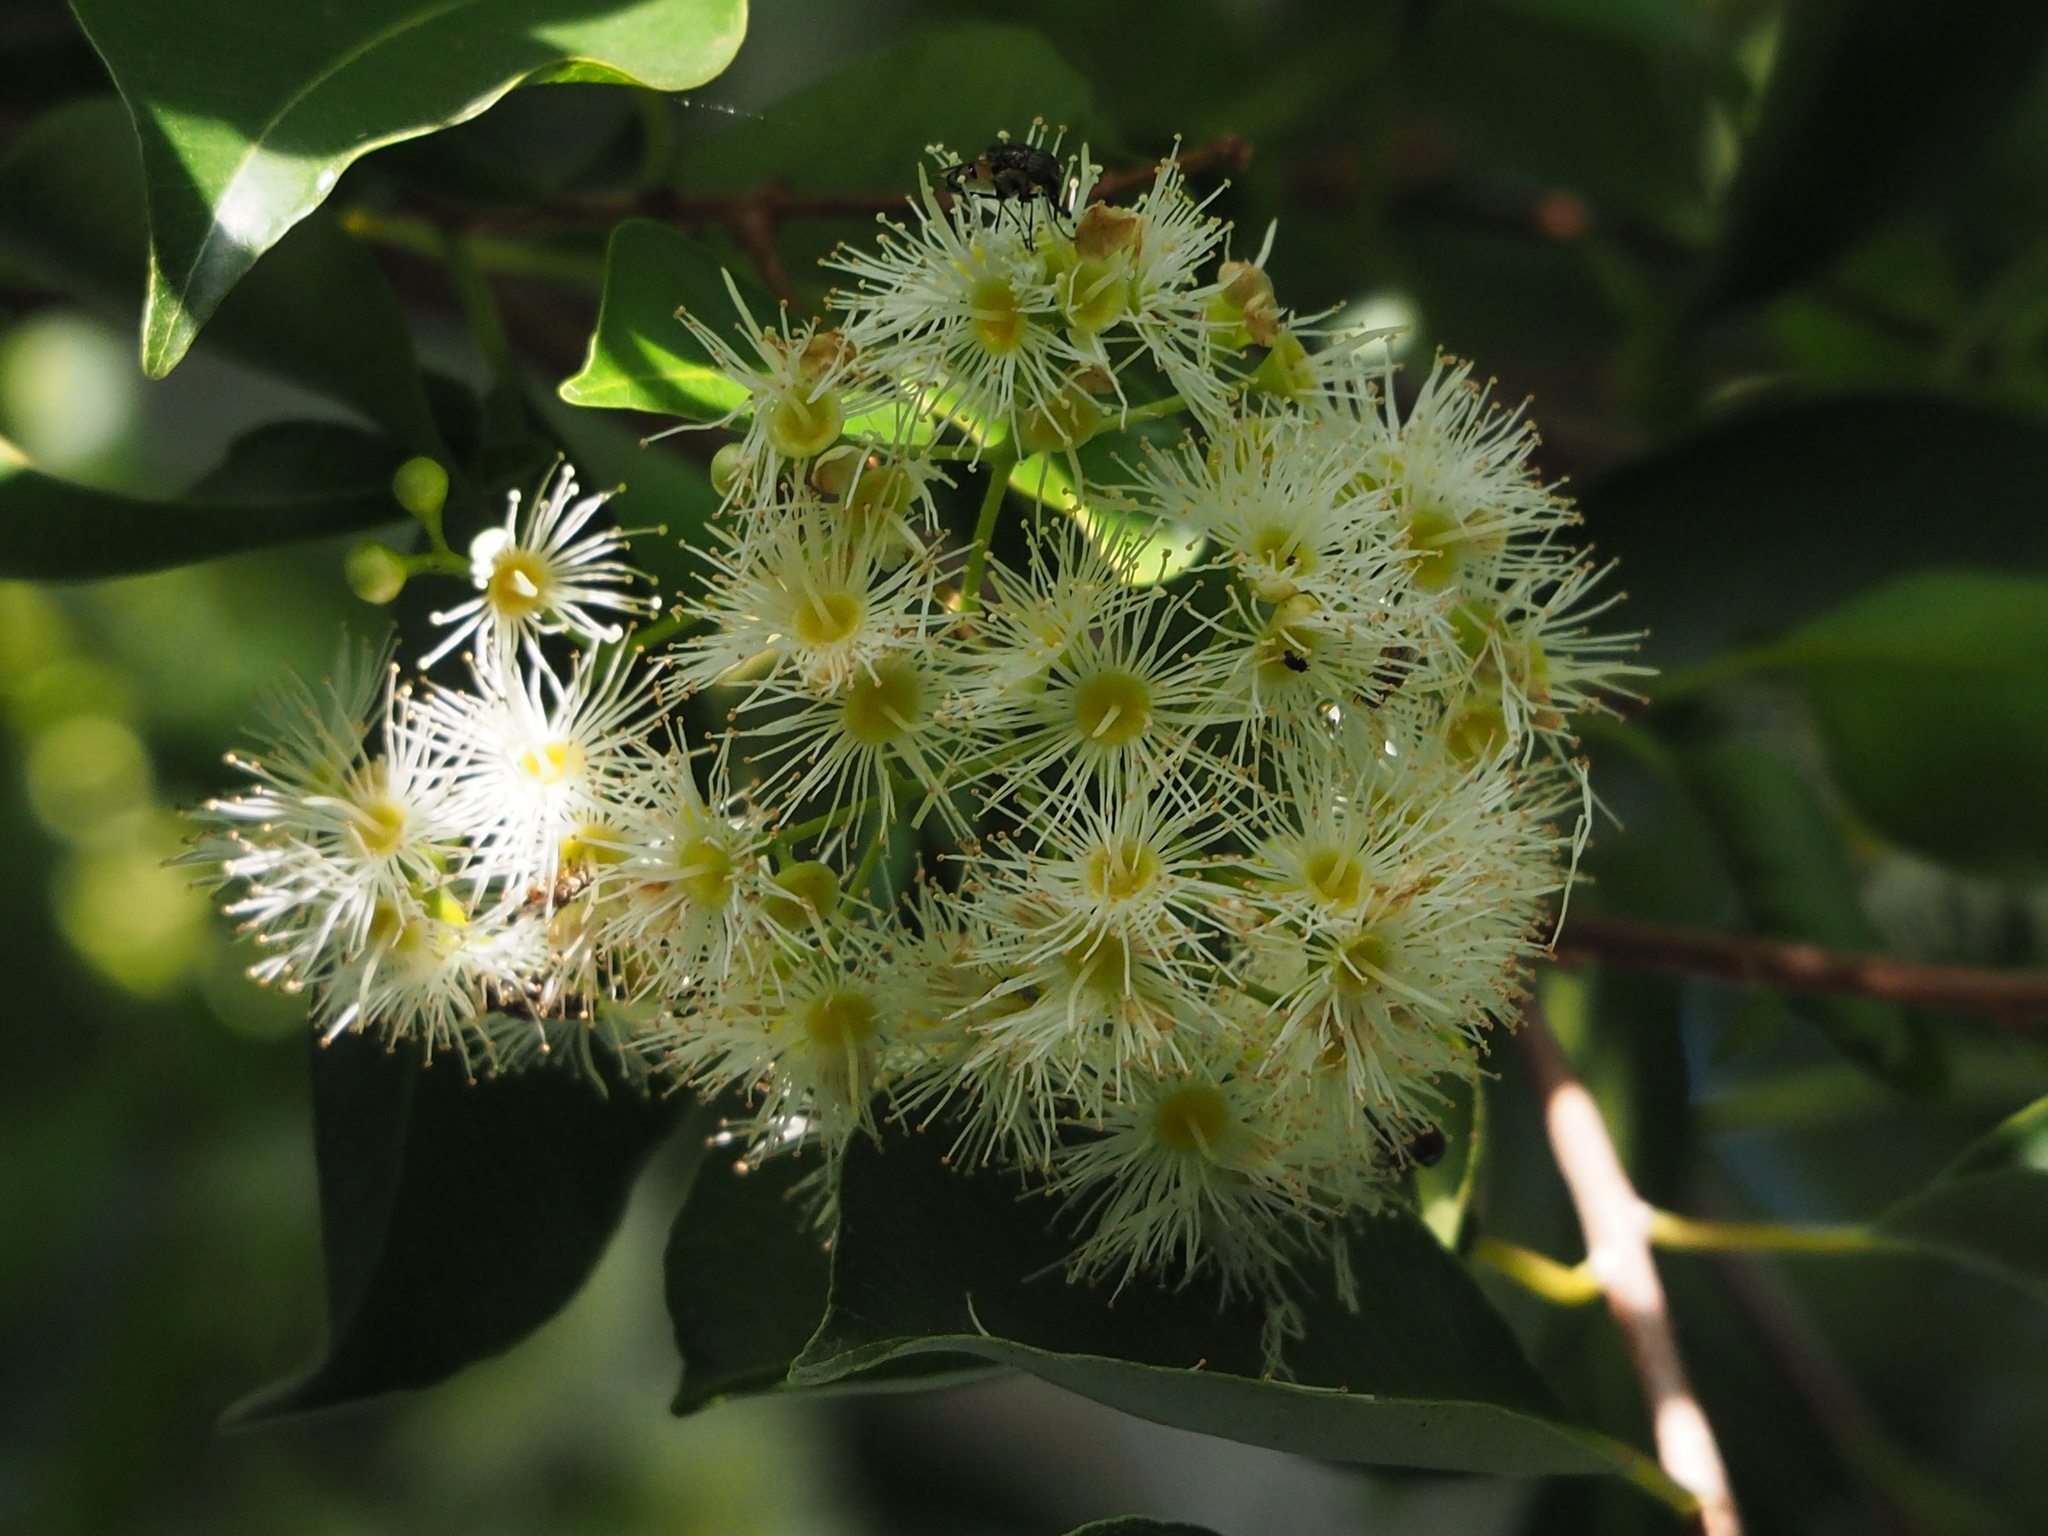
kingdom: Plantae
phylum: Tracheophyta
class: Magnoliopsida
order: Myrtales
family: Myrtaceae
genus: Syzygium
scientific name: Syzygium formosanum
